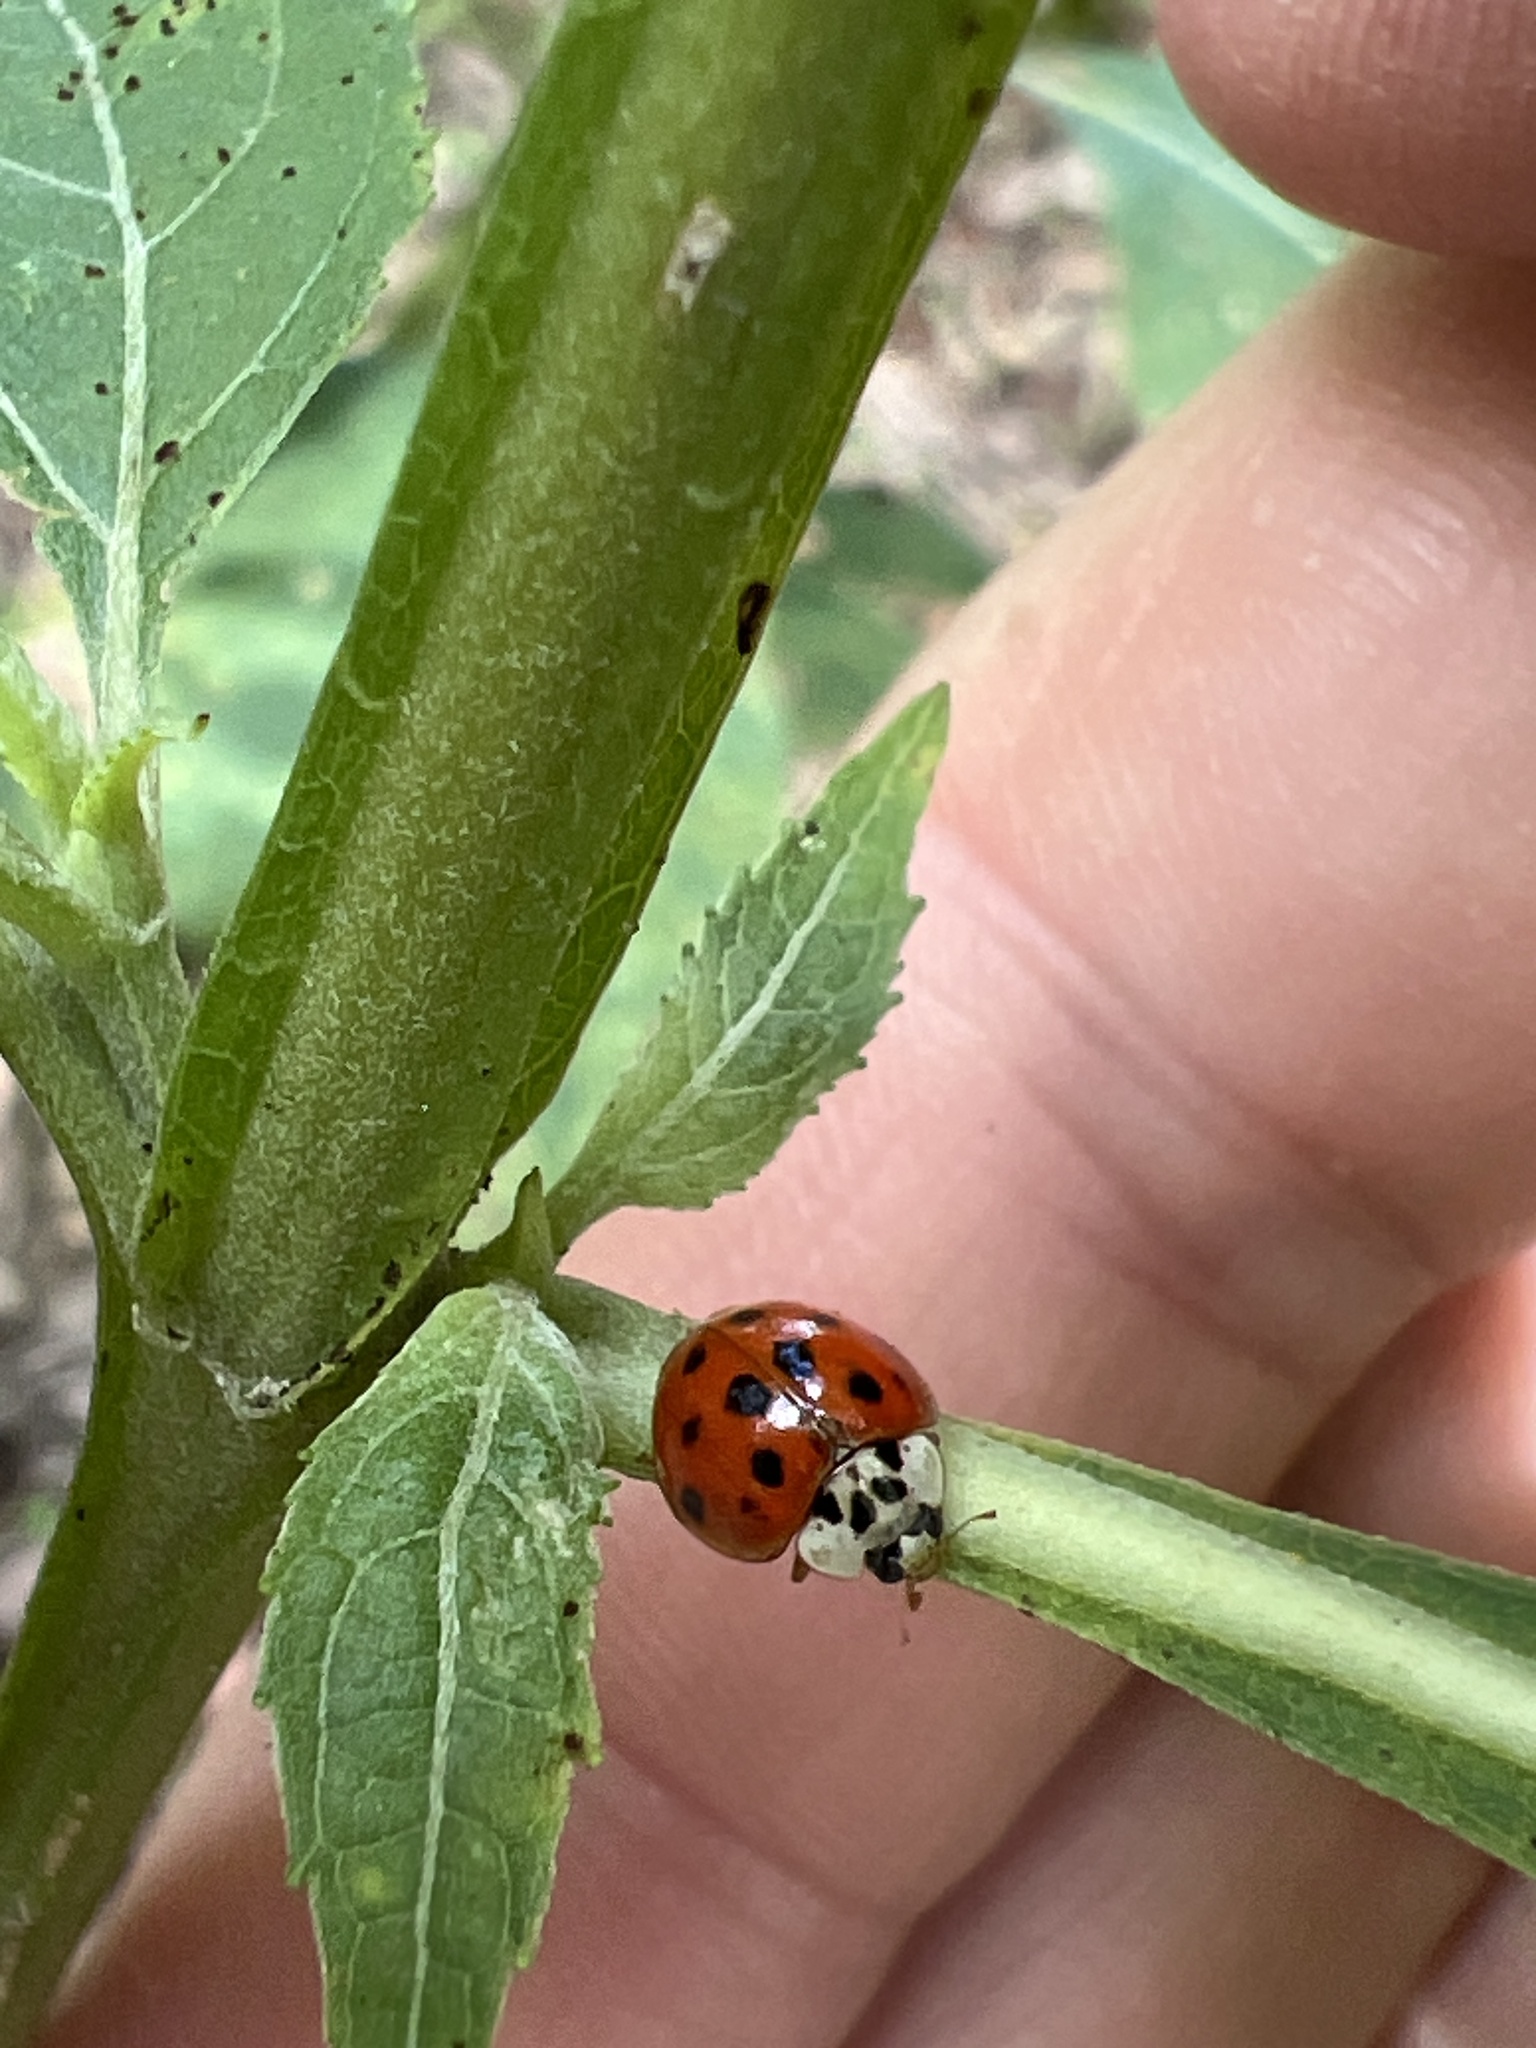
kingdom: Animalia
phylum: Arthropoda
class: Insecta
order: Coleoptera
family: Coccinellidae
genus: Harmonia
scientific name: Harmonia axyridis
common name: Harlequin ladybird
